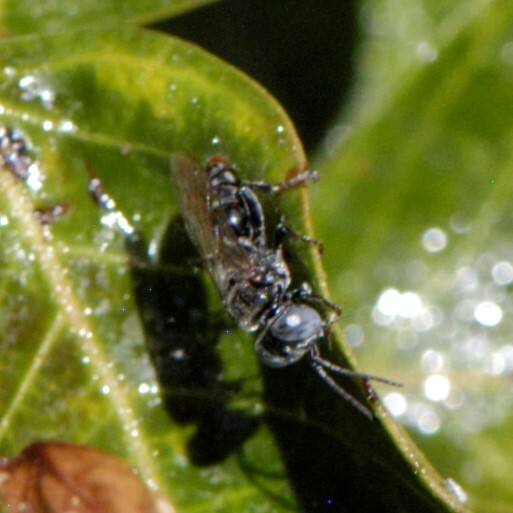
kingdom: Animalia
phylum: Arthropoda
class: Insecta
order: Hymenoptera
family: Crabronidae
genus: Tachysphex
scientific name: Tachysphex
